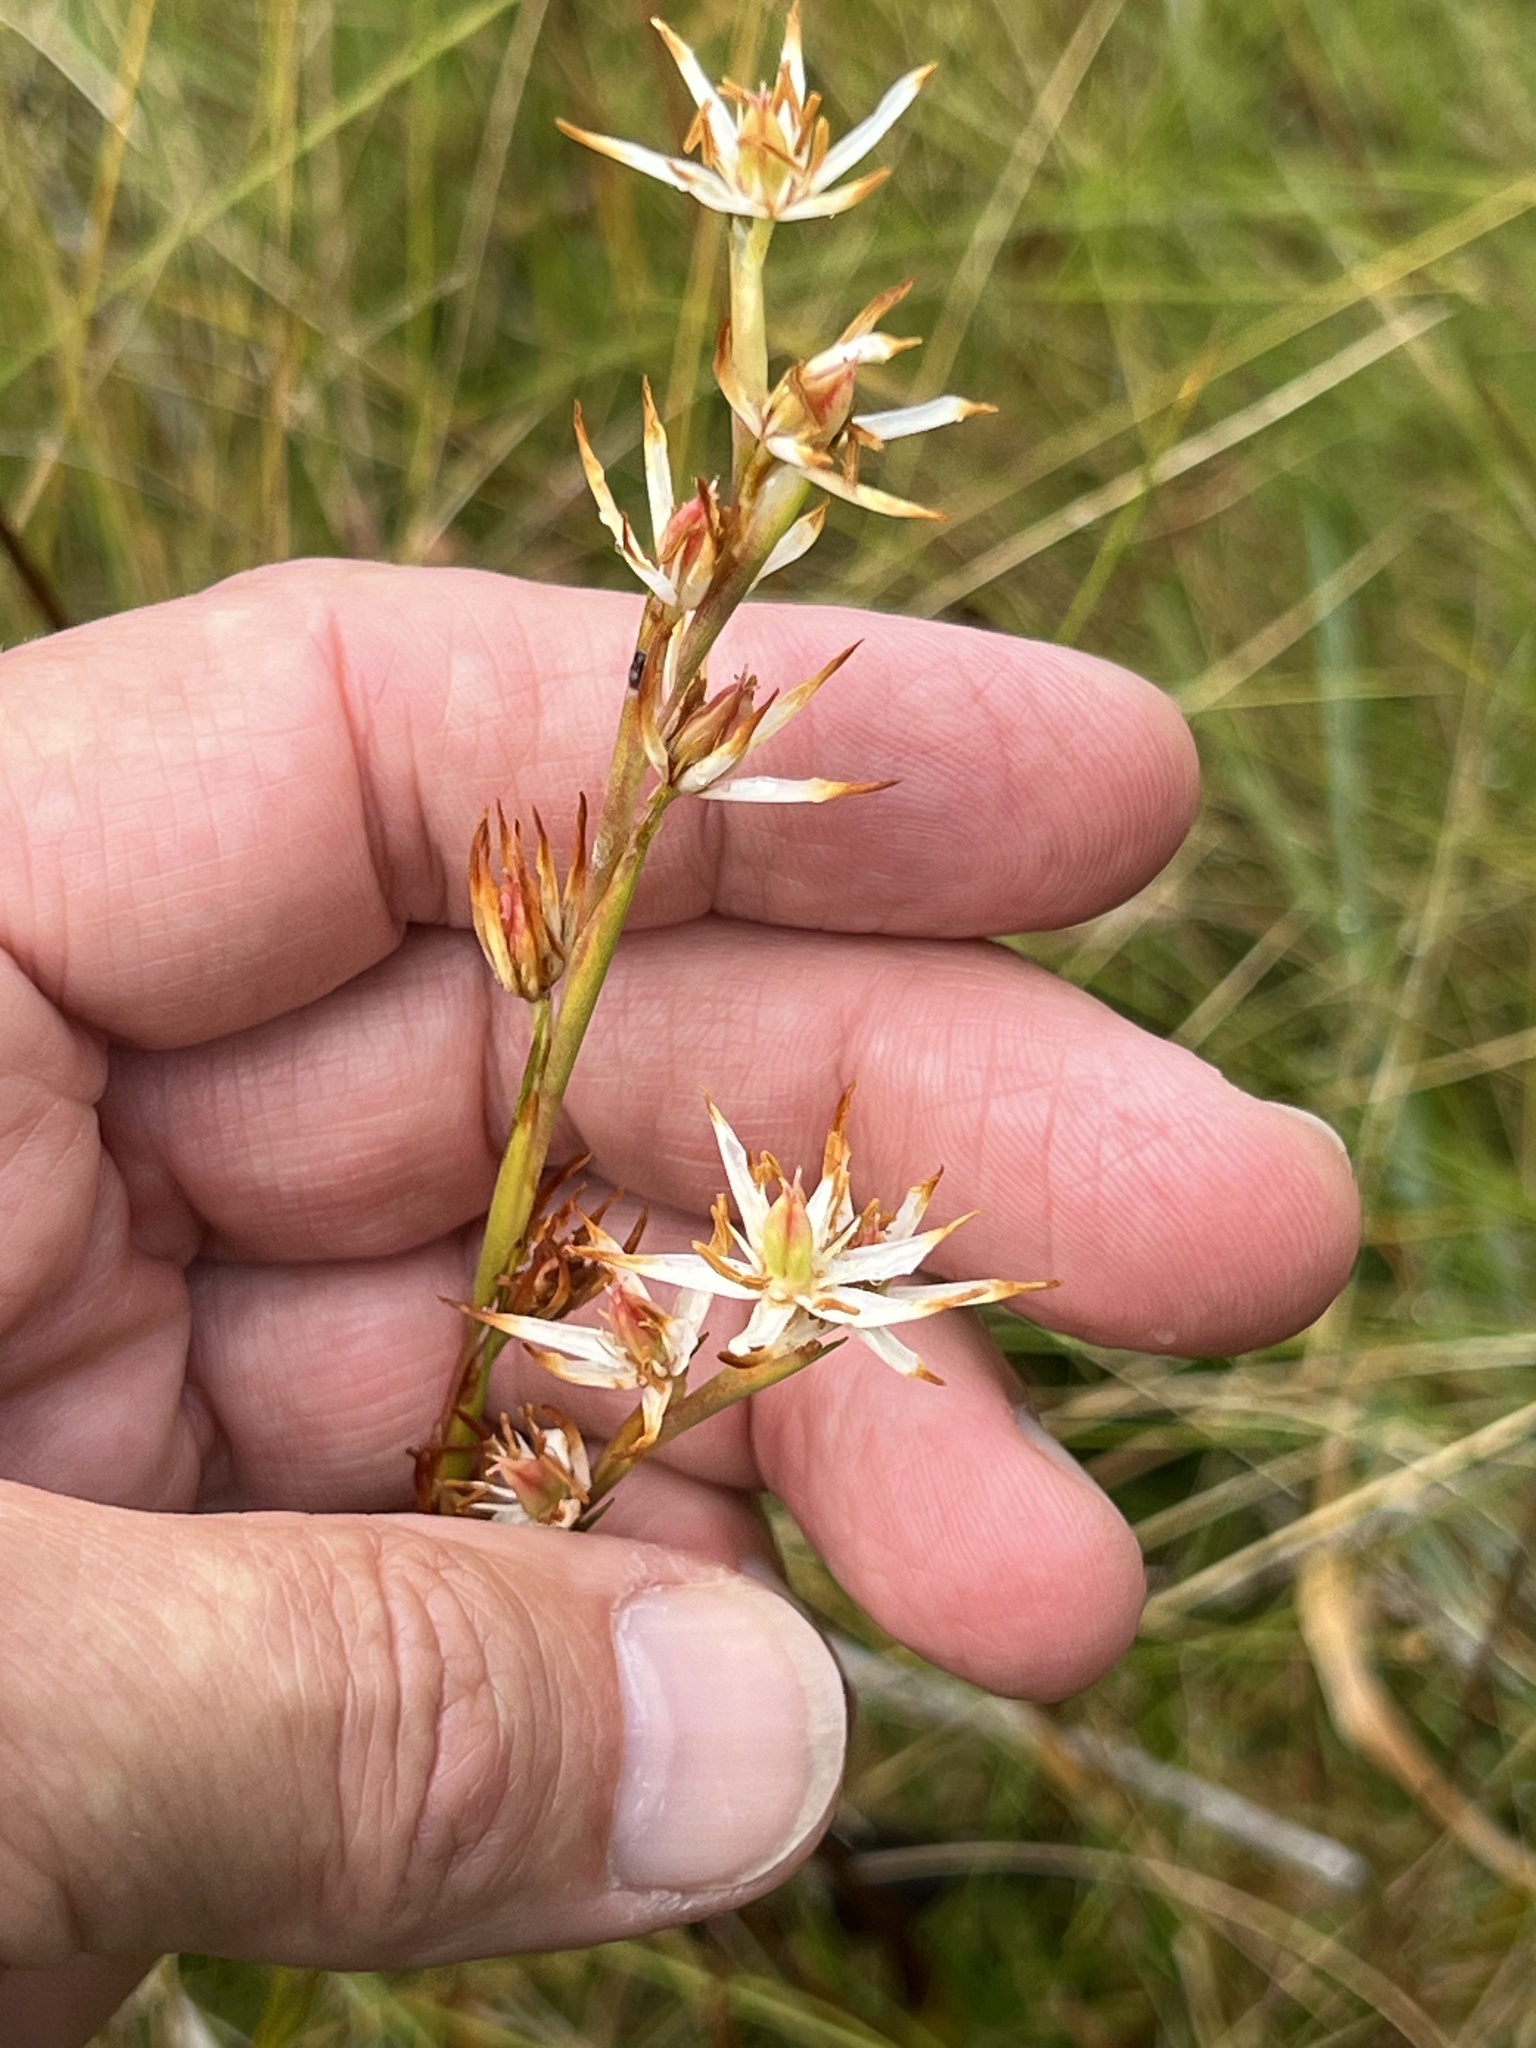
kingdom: Plantae
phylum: Tracheophyta
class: Liliopsida
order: Alismatales
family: Tofieldiaceae
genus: Pleea
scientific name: Pleea tenuifolia
